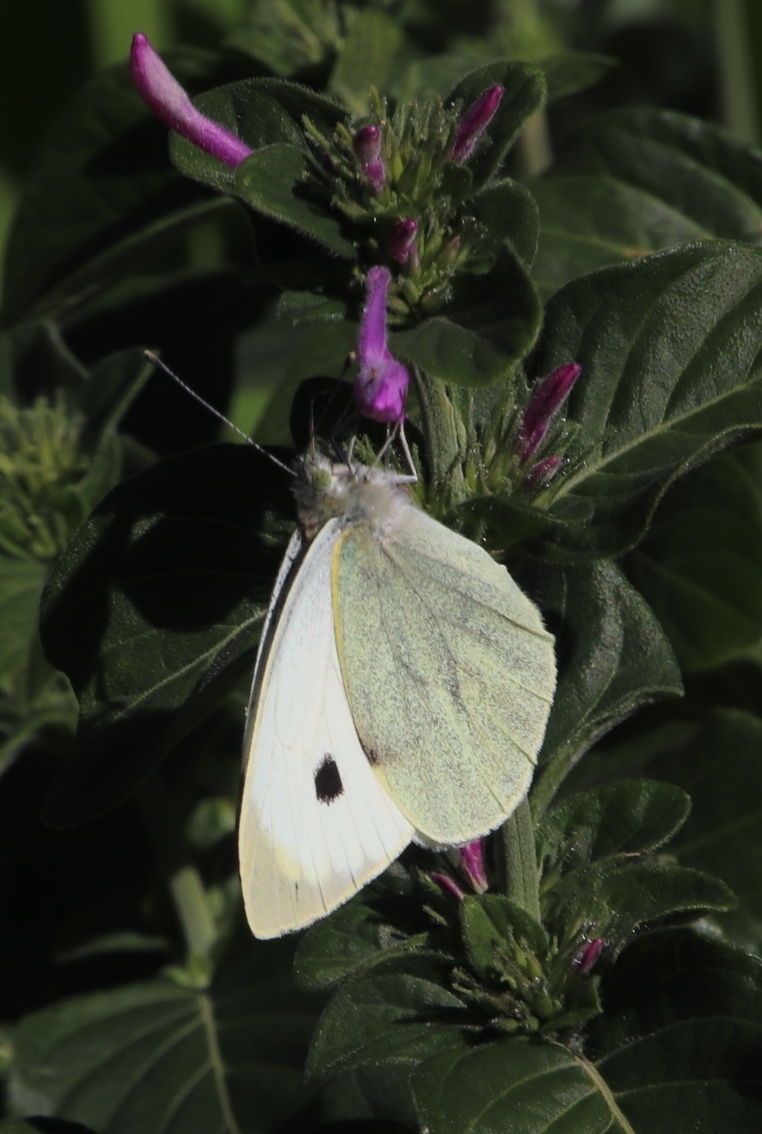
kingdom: Animalia
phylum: Arthropoda
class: Insecta
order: Lepidoptera
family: Pieridae
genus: Pieris
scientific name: Pieris brassicae
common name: Large white
